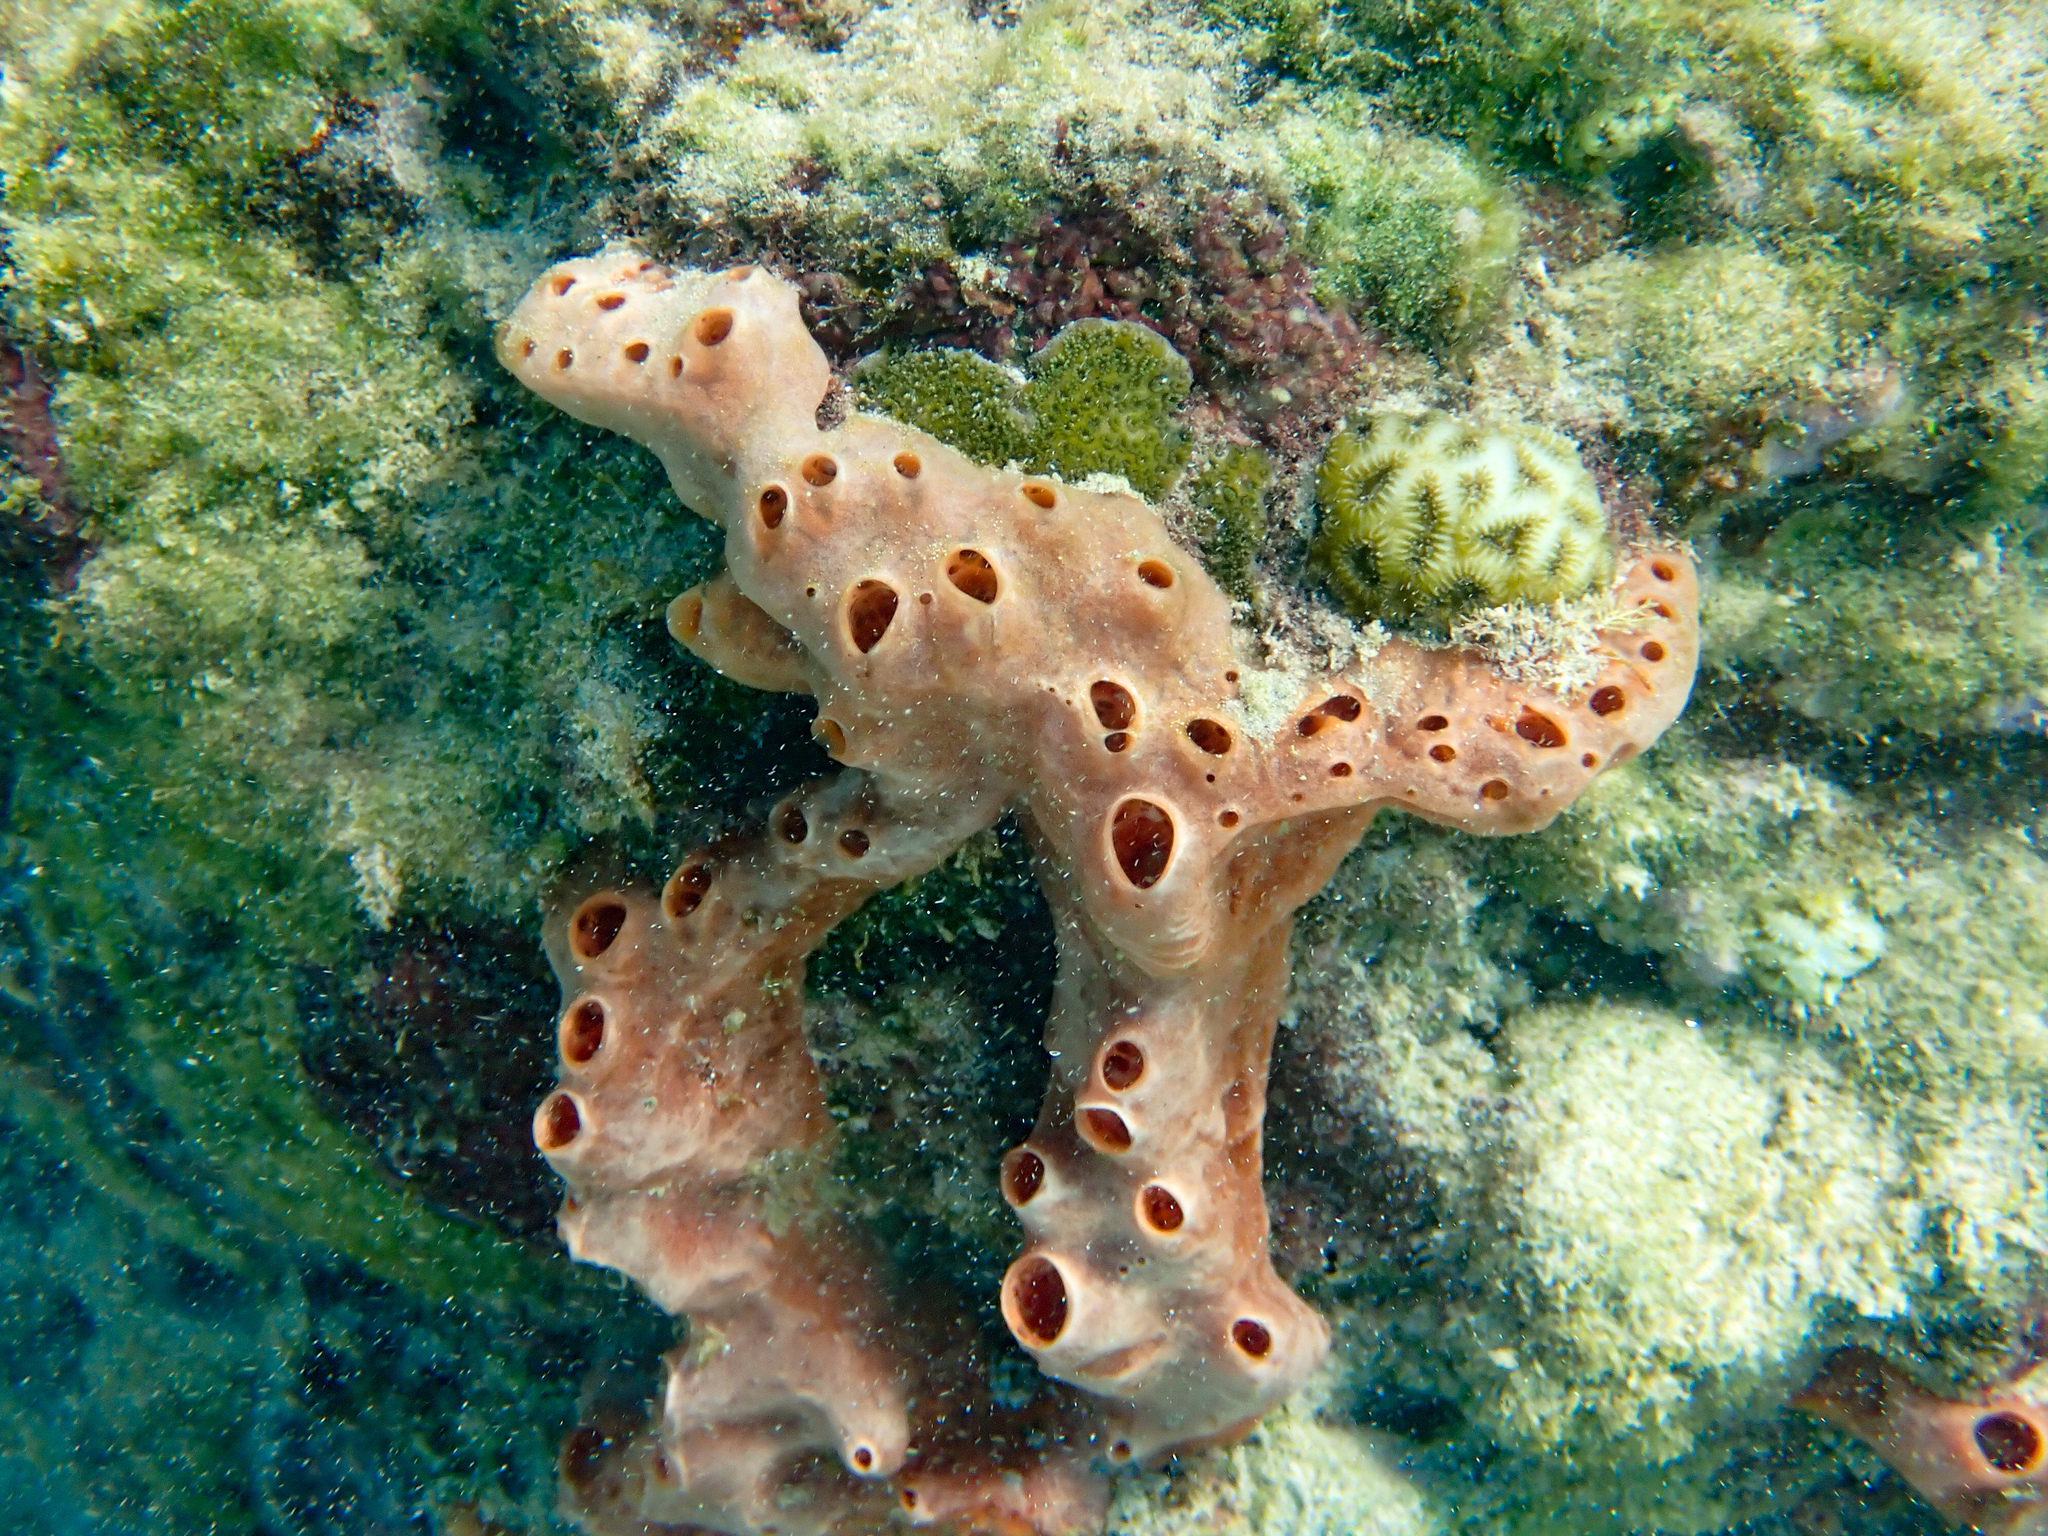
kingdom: Animalia
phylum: Porifera
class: Demospongiae
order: Poecilosclerida
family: Desmacididae
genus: Desmapsamma
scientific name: Desmapsamma anchorata
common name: Lumpy overgrowing sponge
